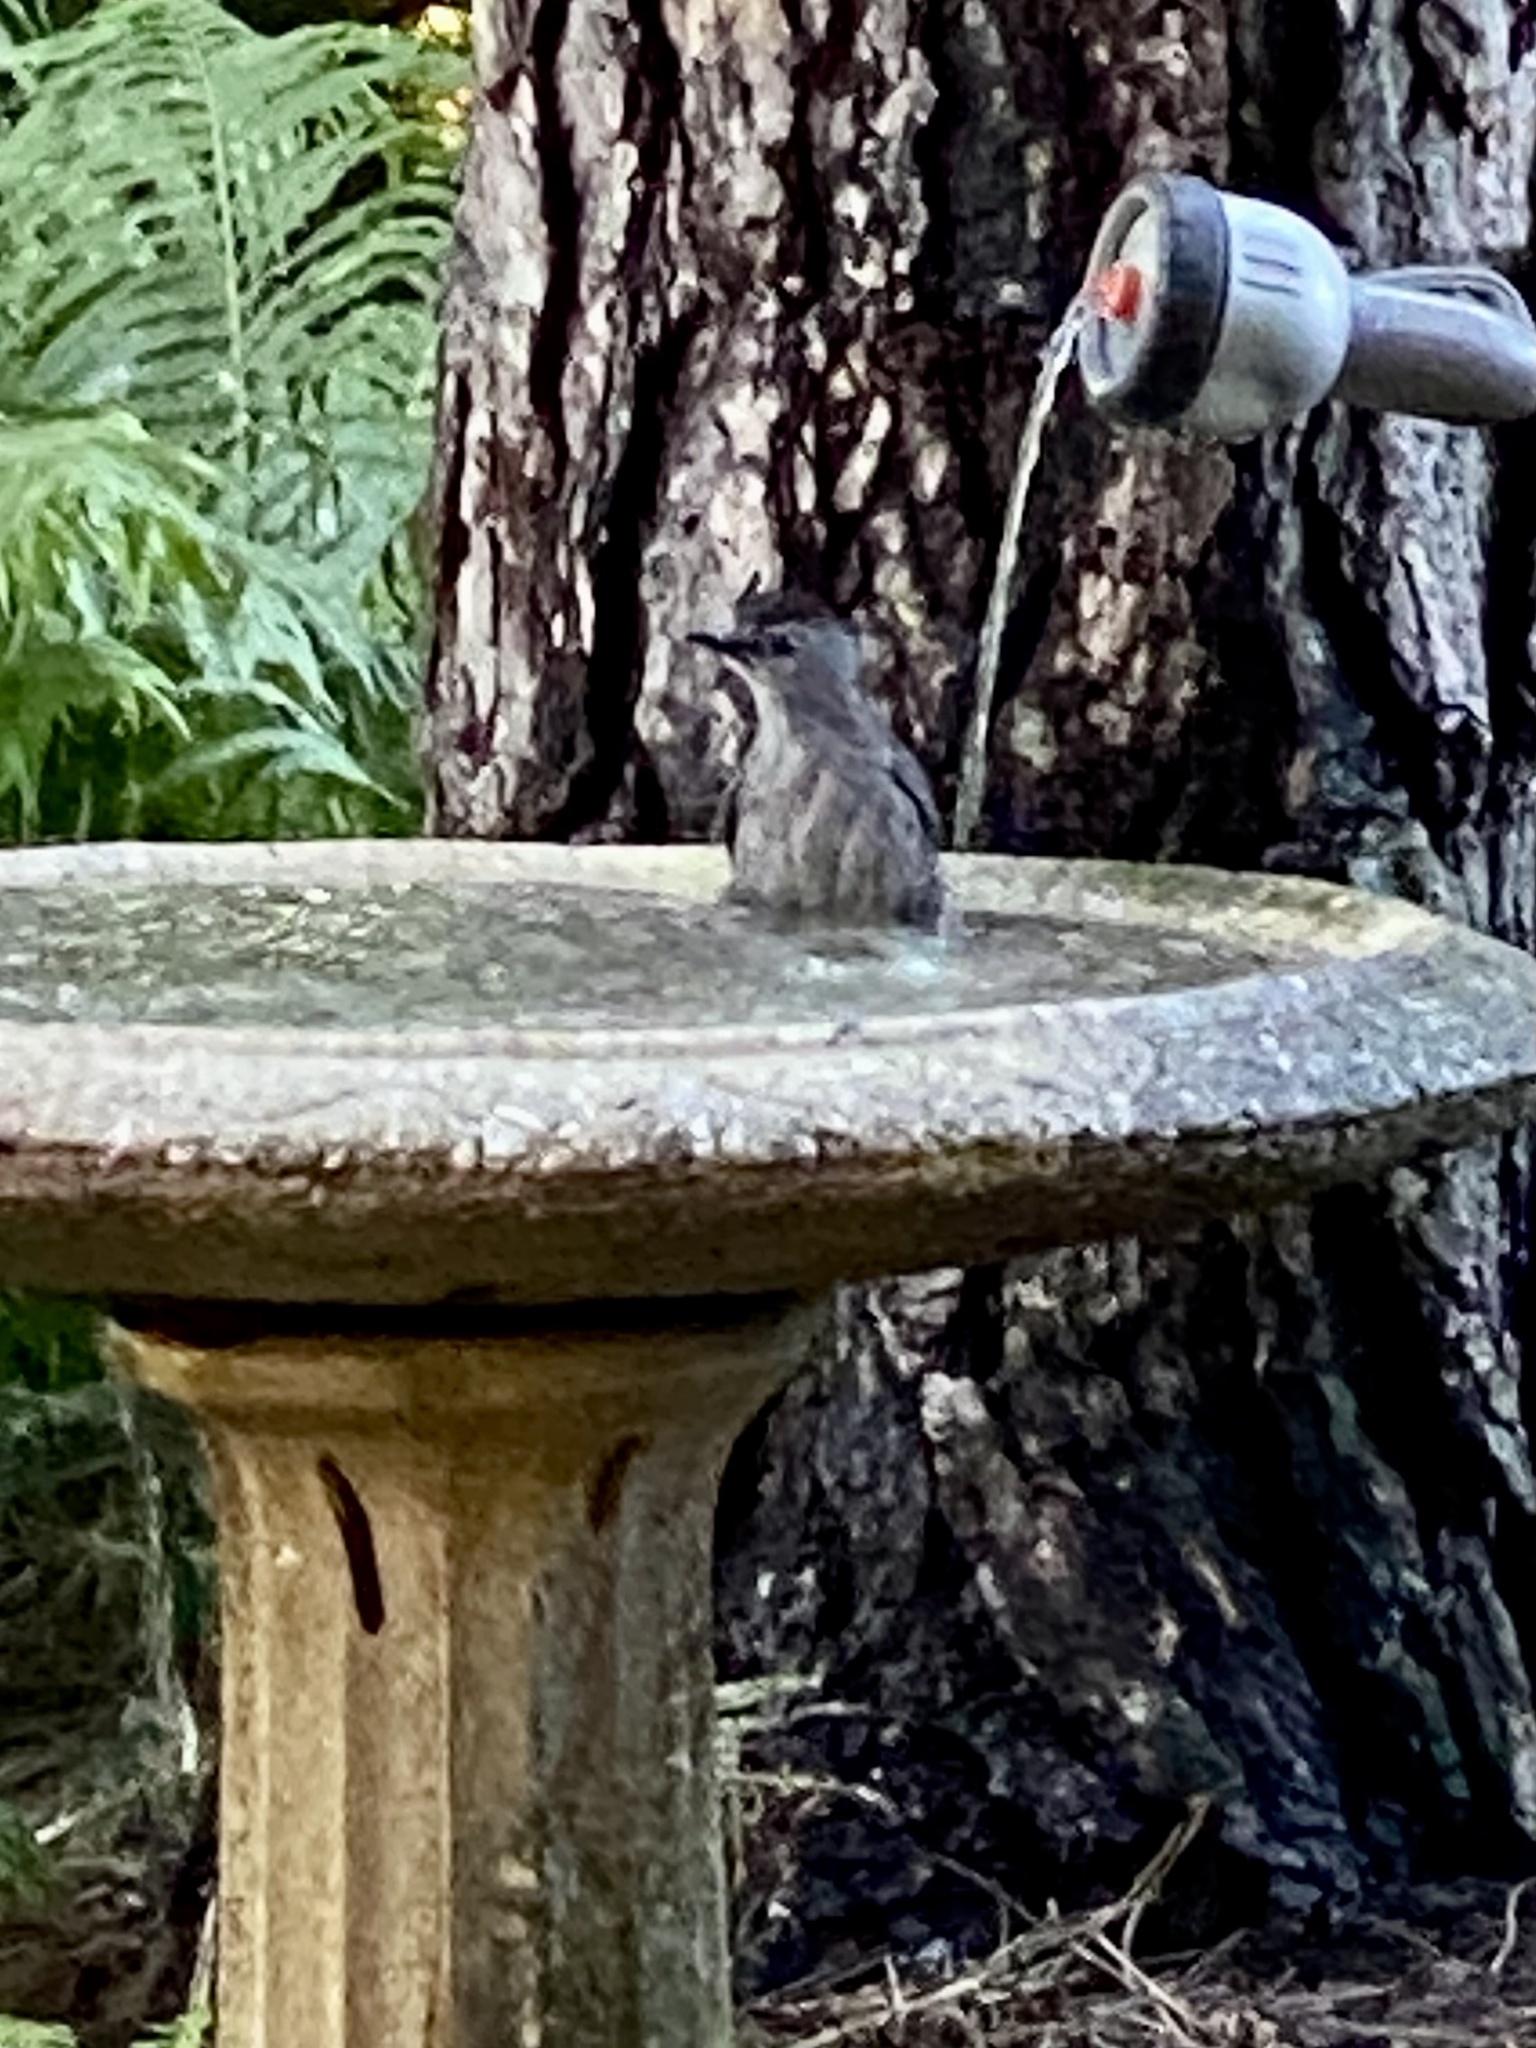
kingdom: Animalia
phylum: Chordata
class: Aves
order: Passeriformes
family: Mimidae
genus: Dumetella
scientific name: Dumetella carolinensis
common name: Gray catbird
